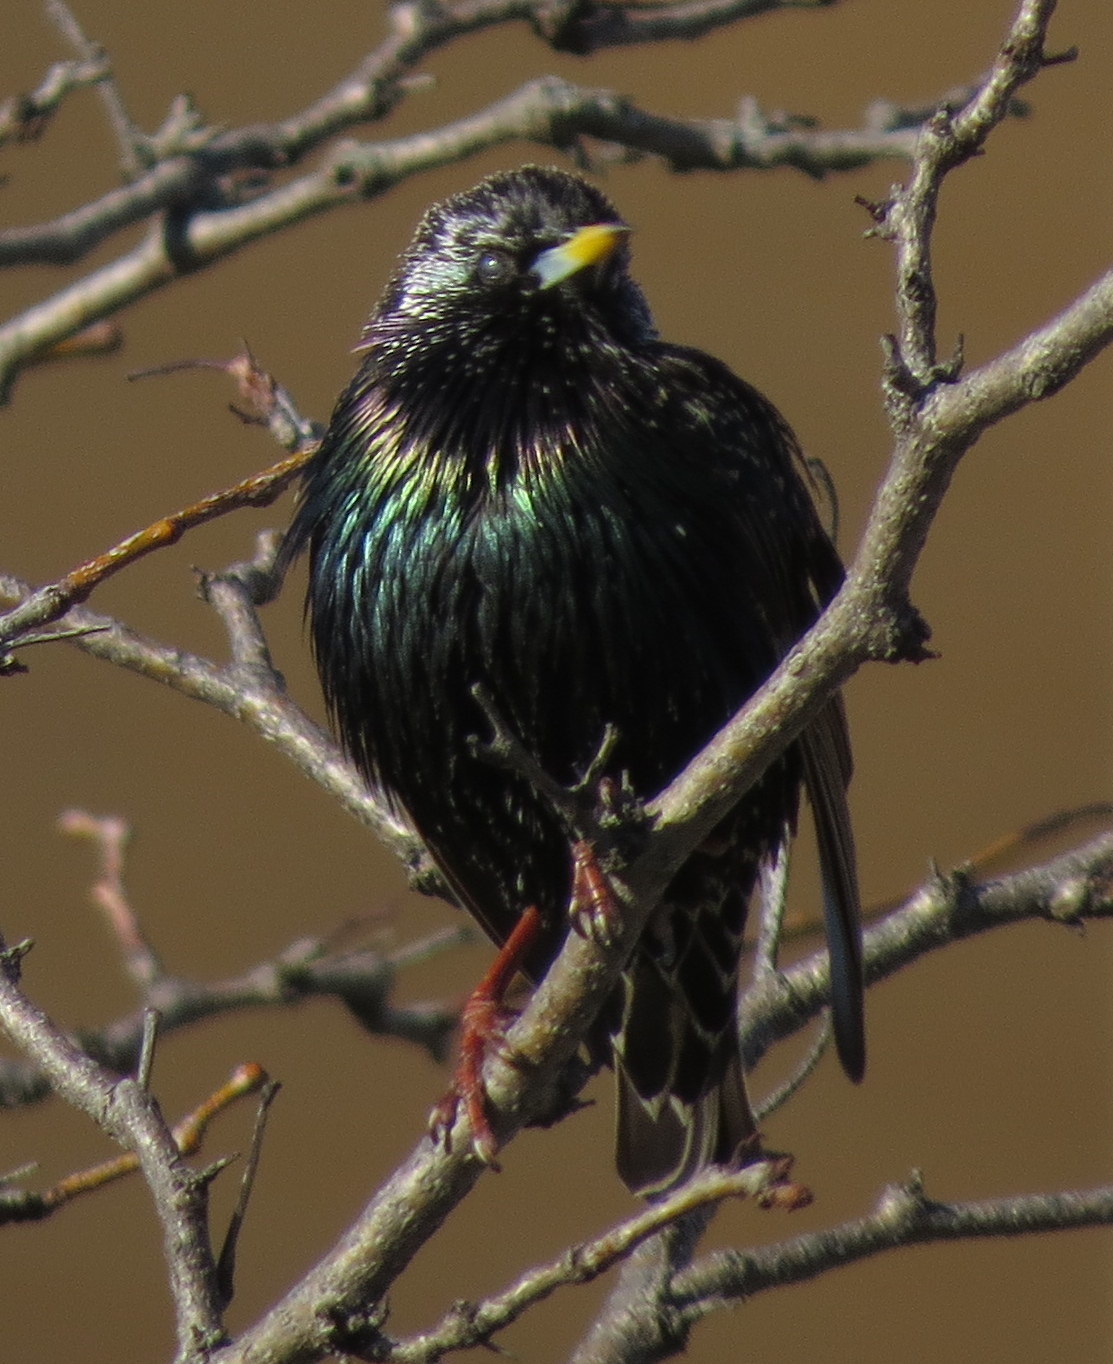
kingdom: Animalia
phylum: Chordata
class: Aves
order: Passeriformes
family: Sturnidae
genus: Sturnus
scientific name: Sturnus vulgaris
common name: Common starling
